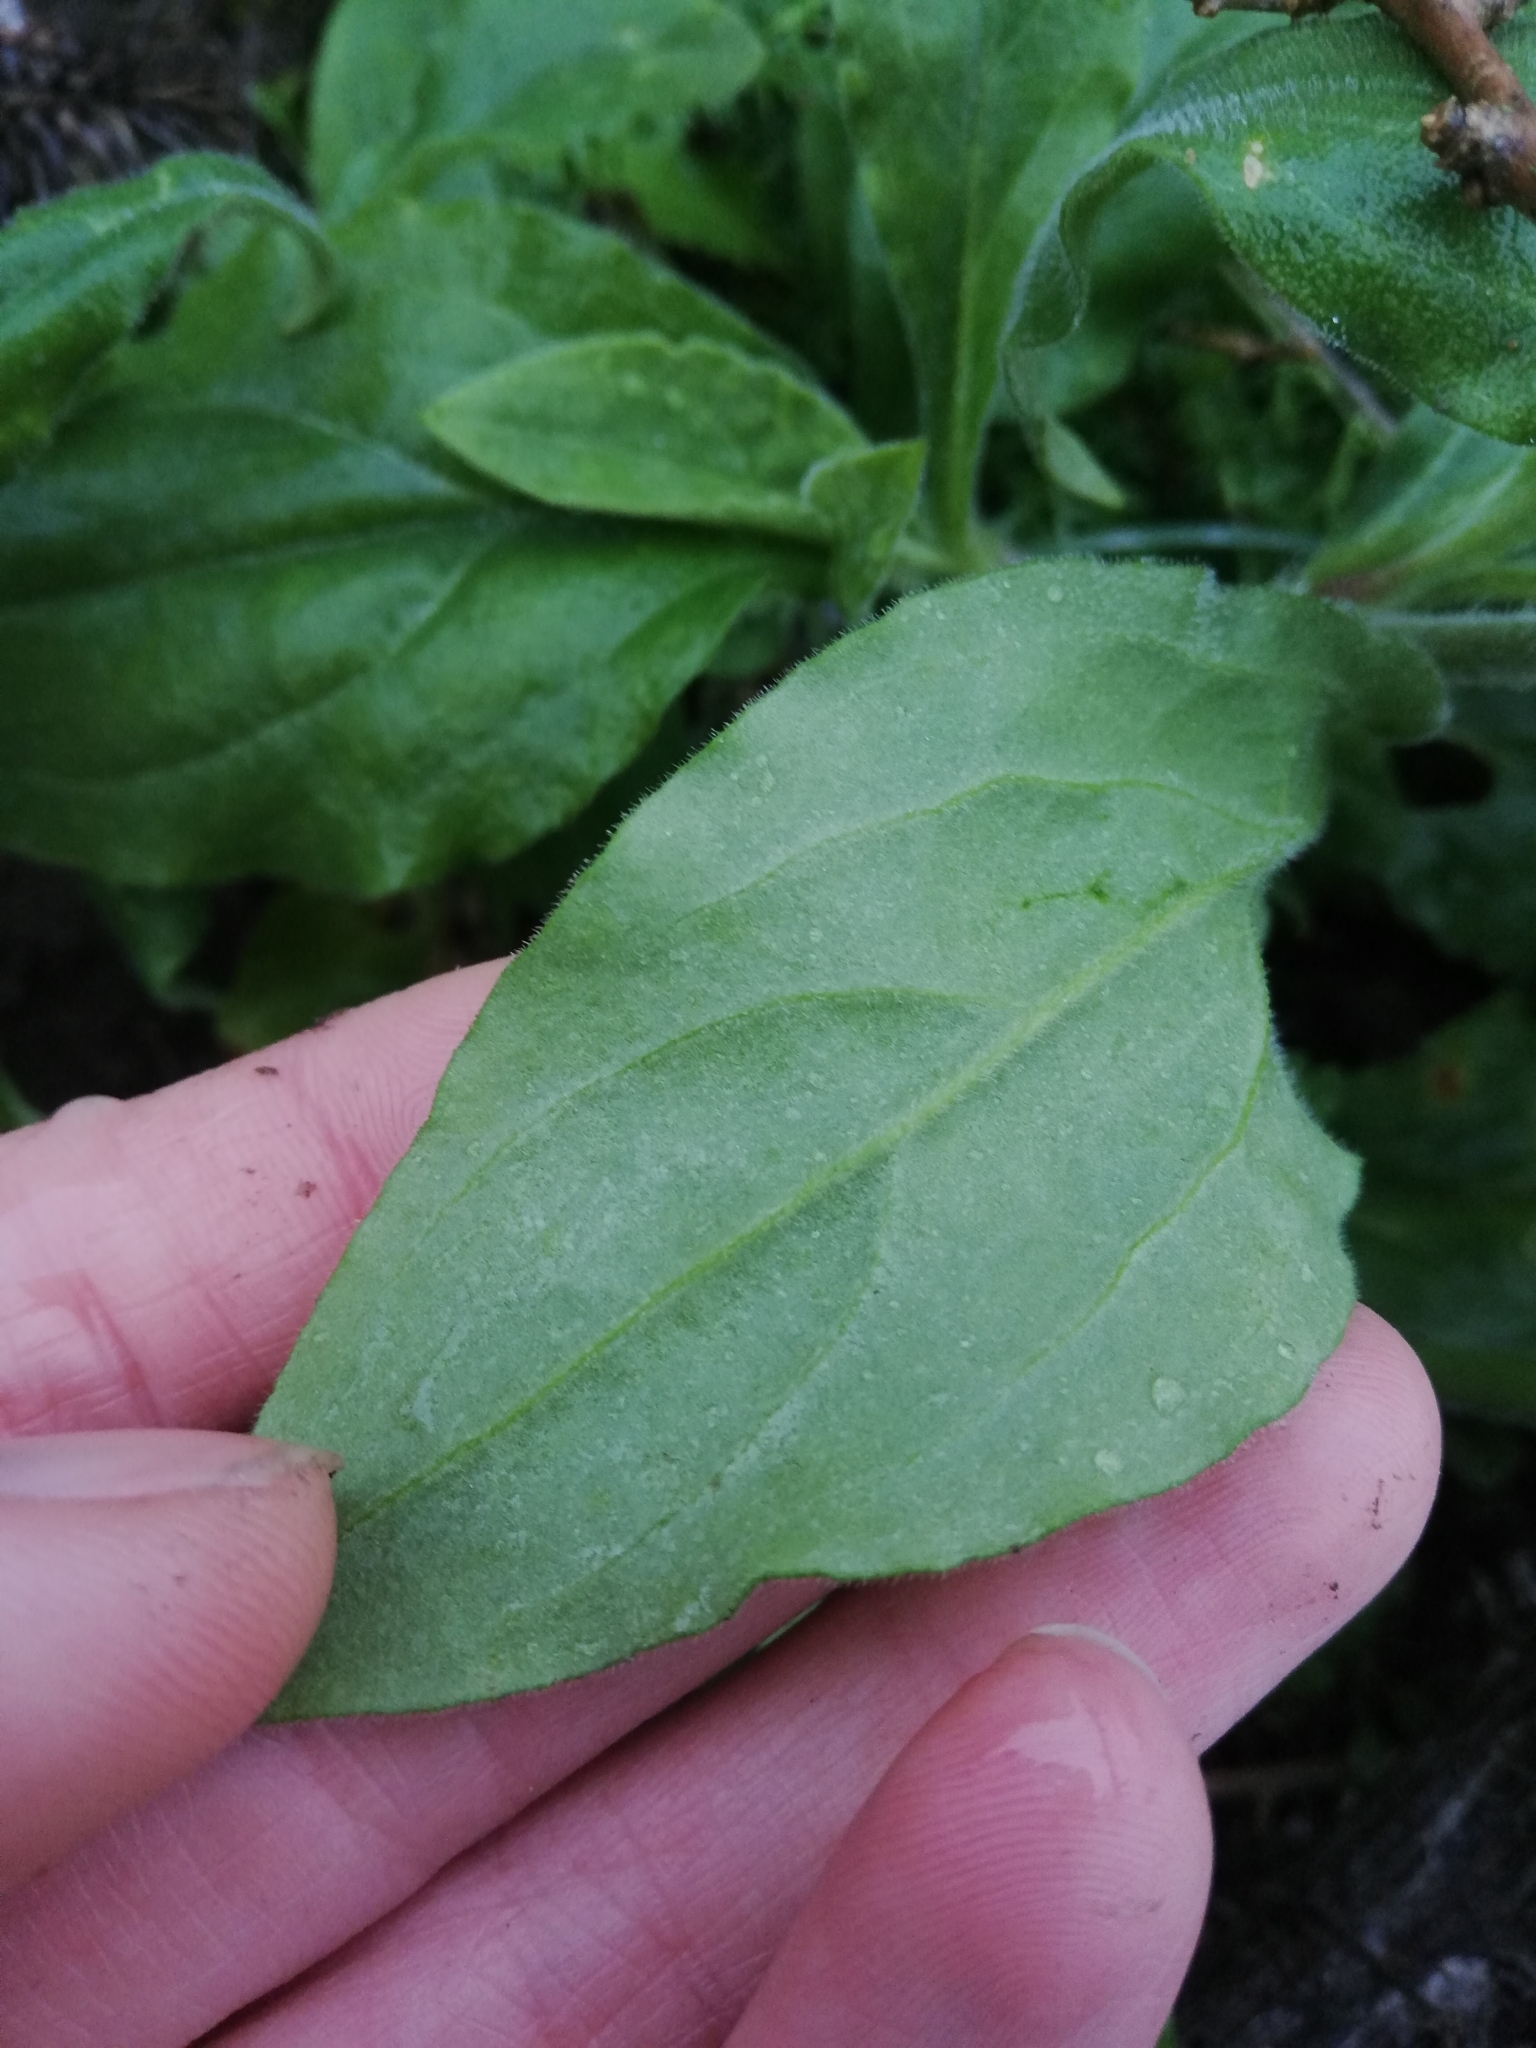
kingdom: Plantae
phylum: Tracheophyta
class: Magnoliopsida
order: Caryophyllales
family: Caryophyllaceae
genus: Silene
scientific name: Silene latifolia
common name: White campion
